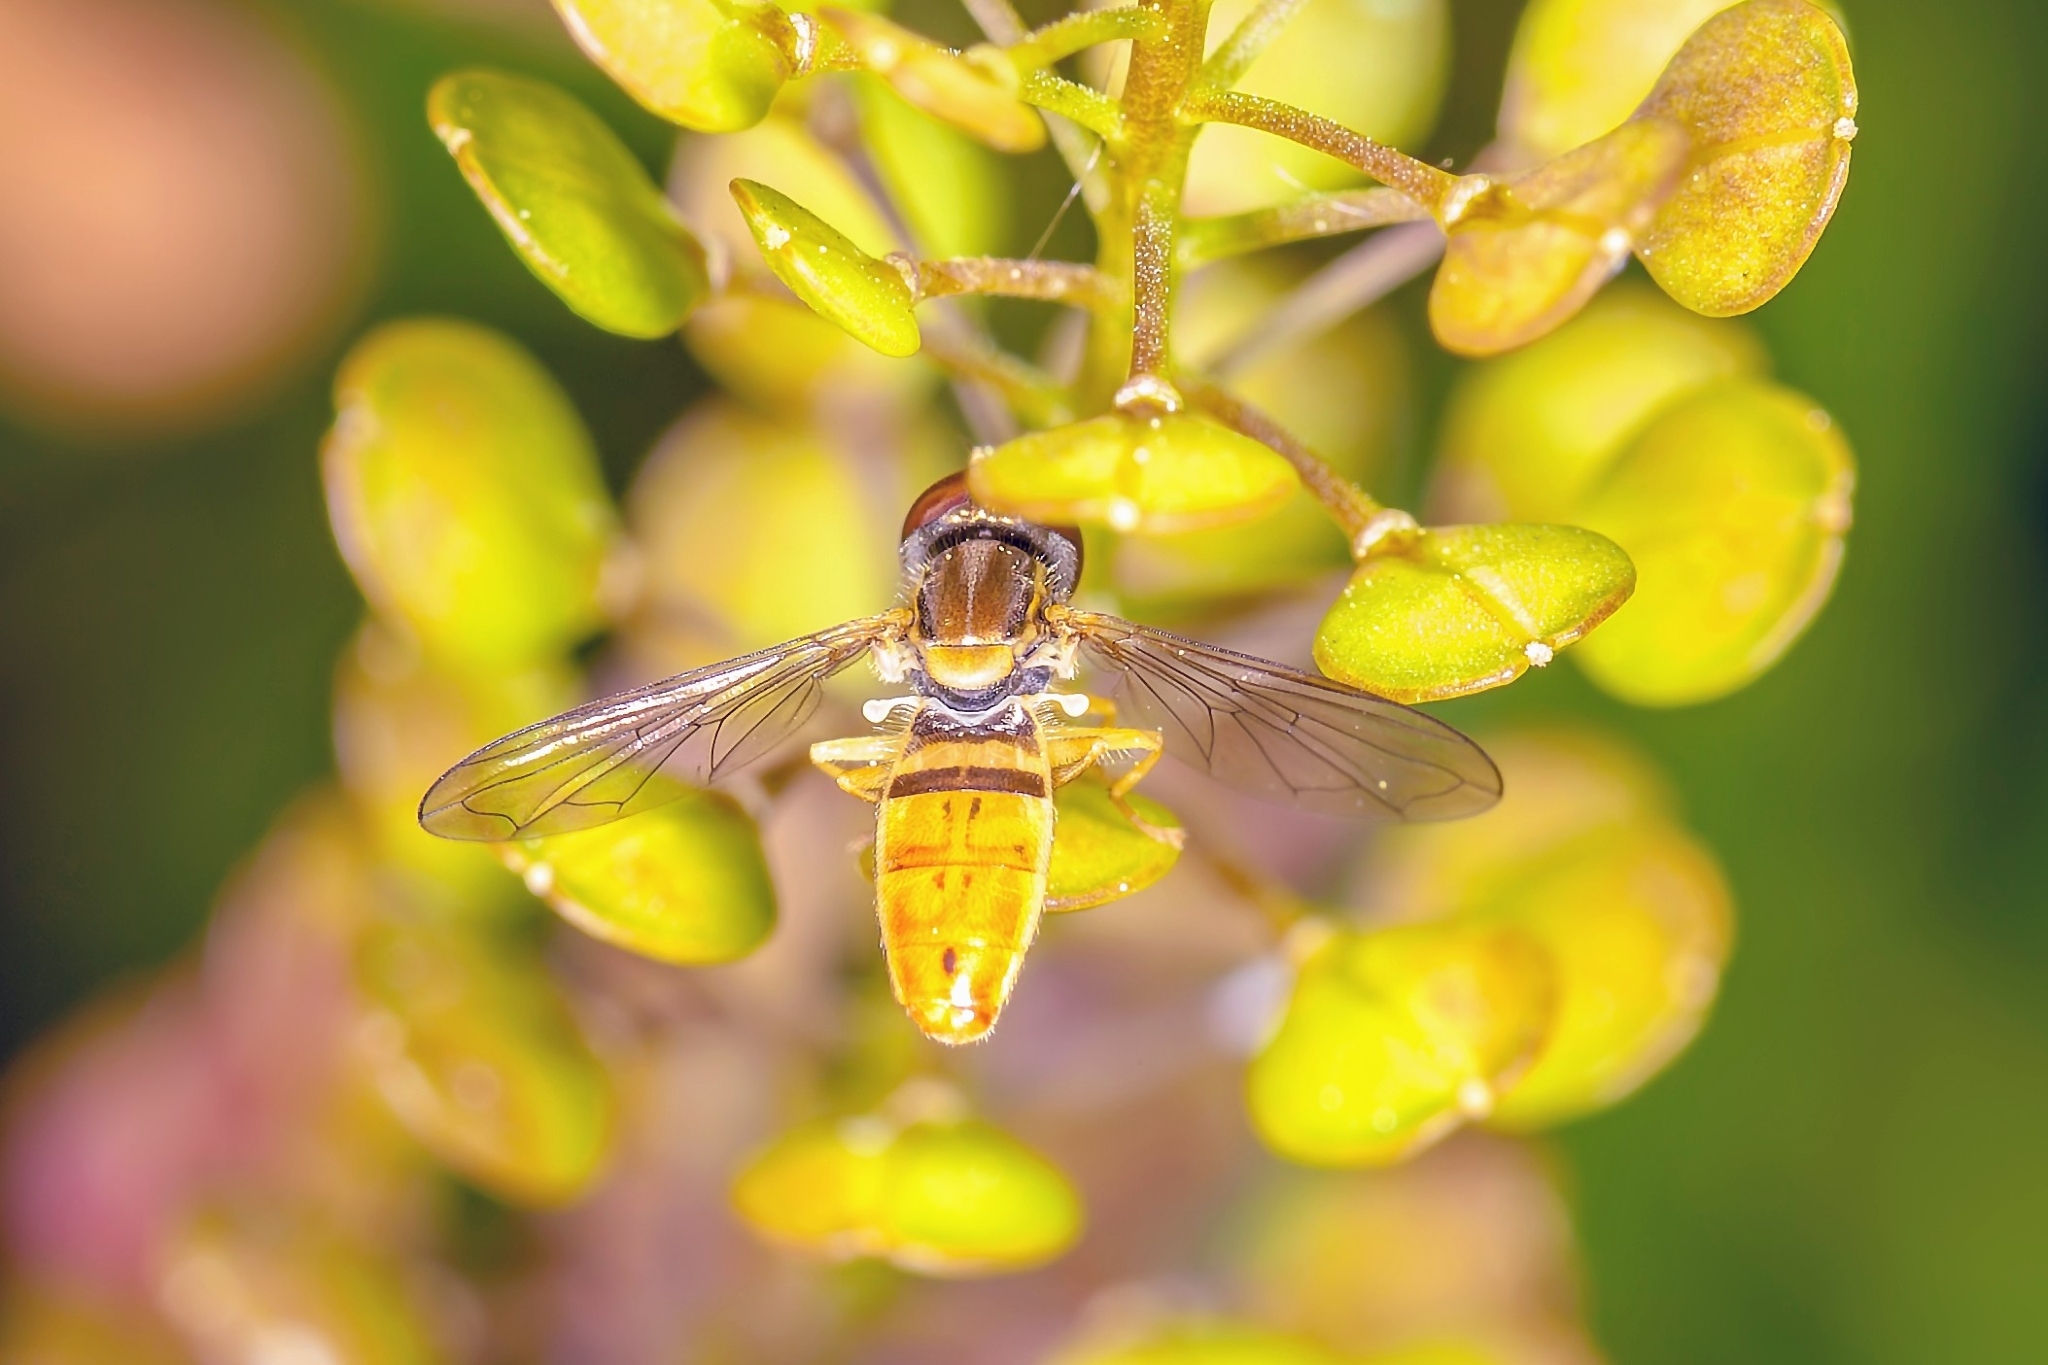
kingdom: Animalia
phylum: Arthropoda
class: Insecta
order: Diptera
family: Syrphidae
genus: Toxomerus
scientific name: Toxomerus marginatus
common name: Syrphid fly
